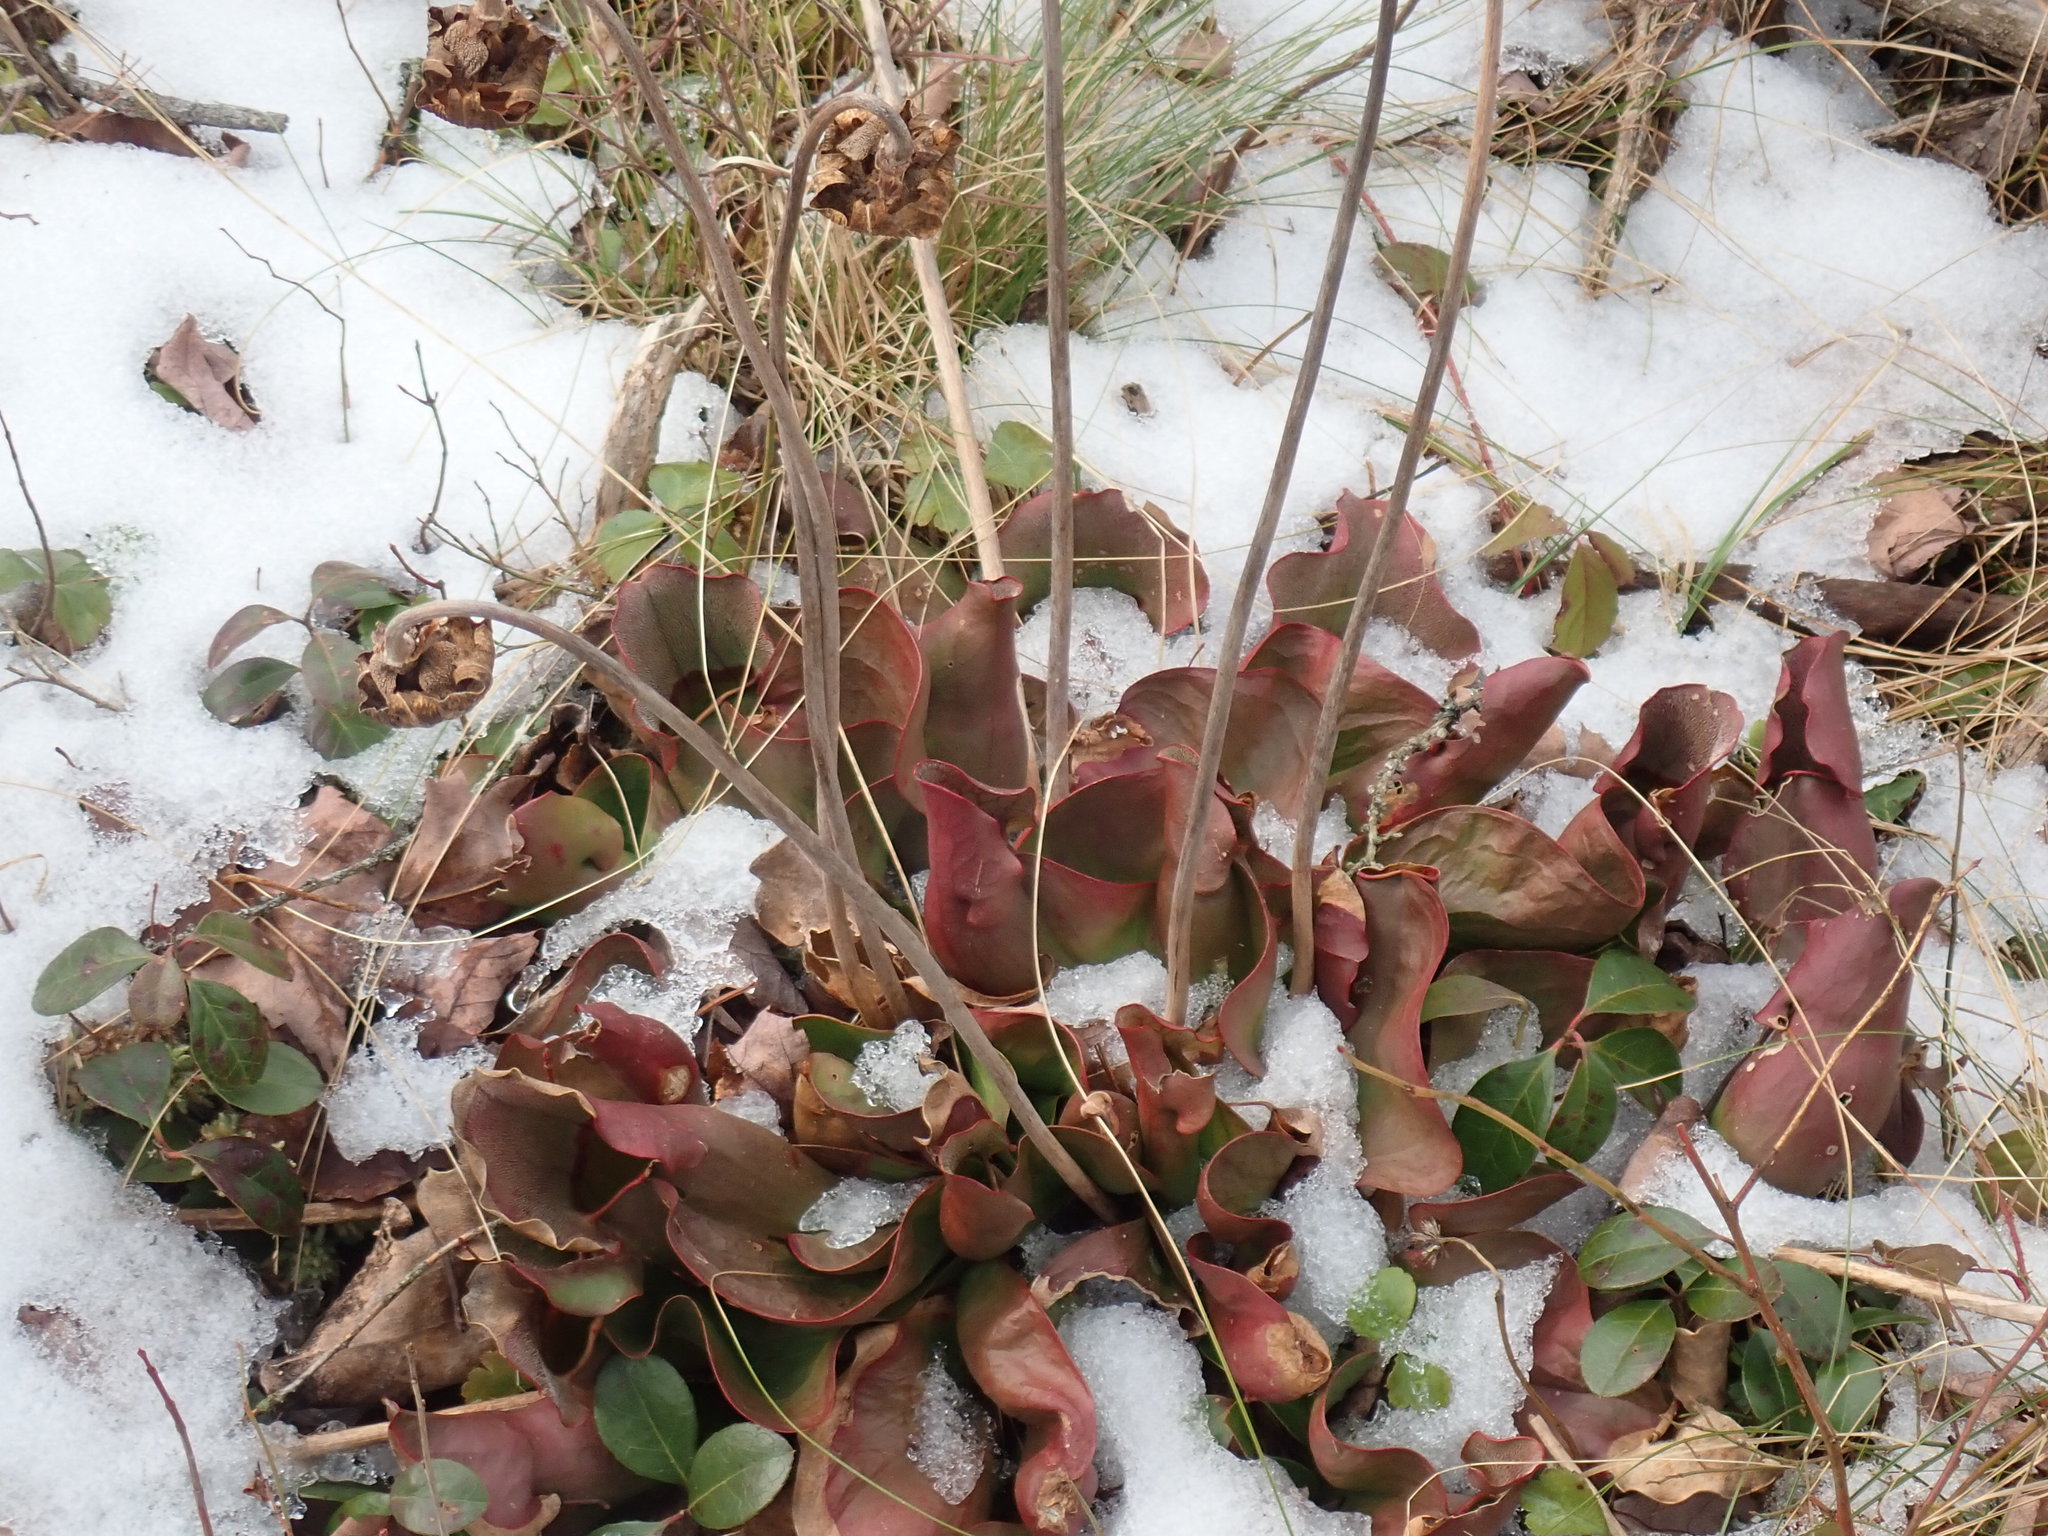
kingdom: Plantae
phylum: Tracheophyta
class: Magnoliopsida
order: Ericales
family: Sarraceniaceae
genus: Sarracenia
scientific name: Sarracenia purpurea
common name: Pitcherplant
